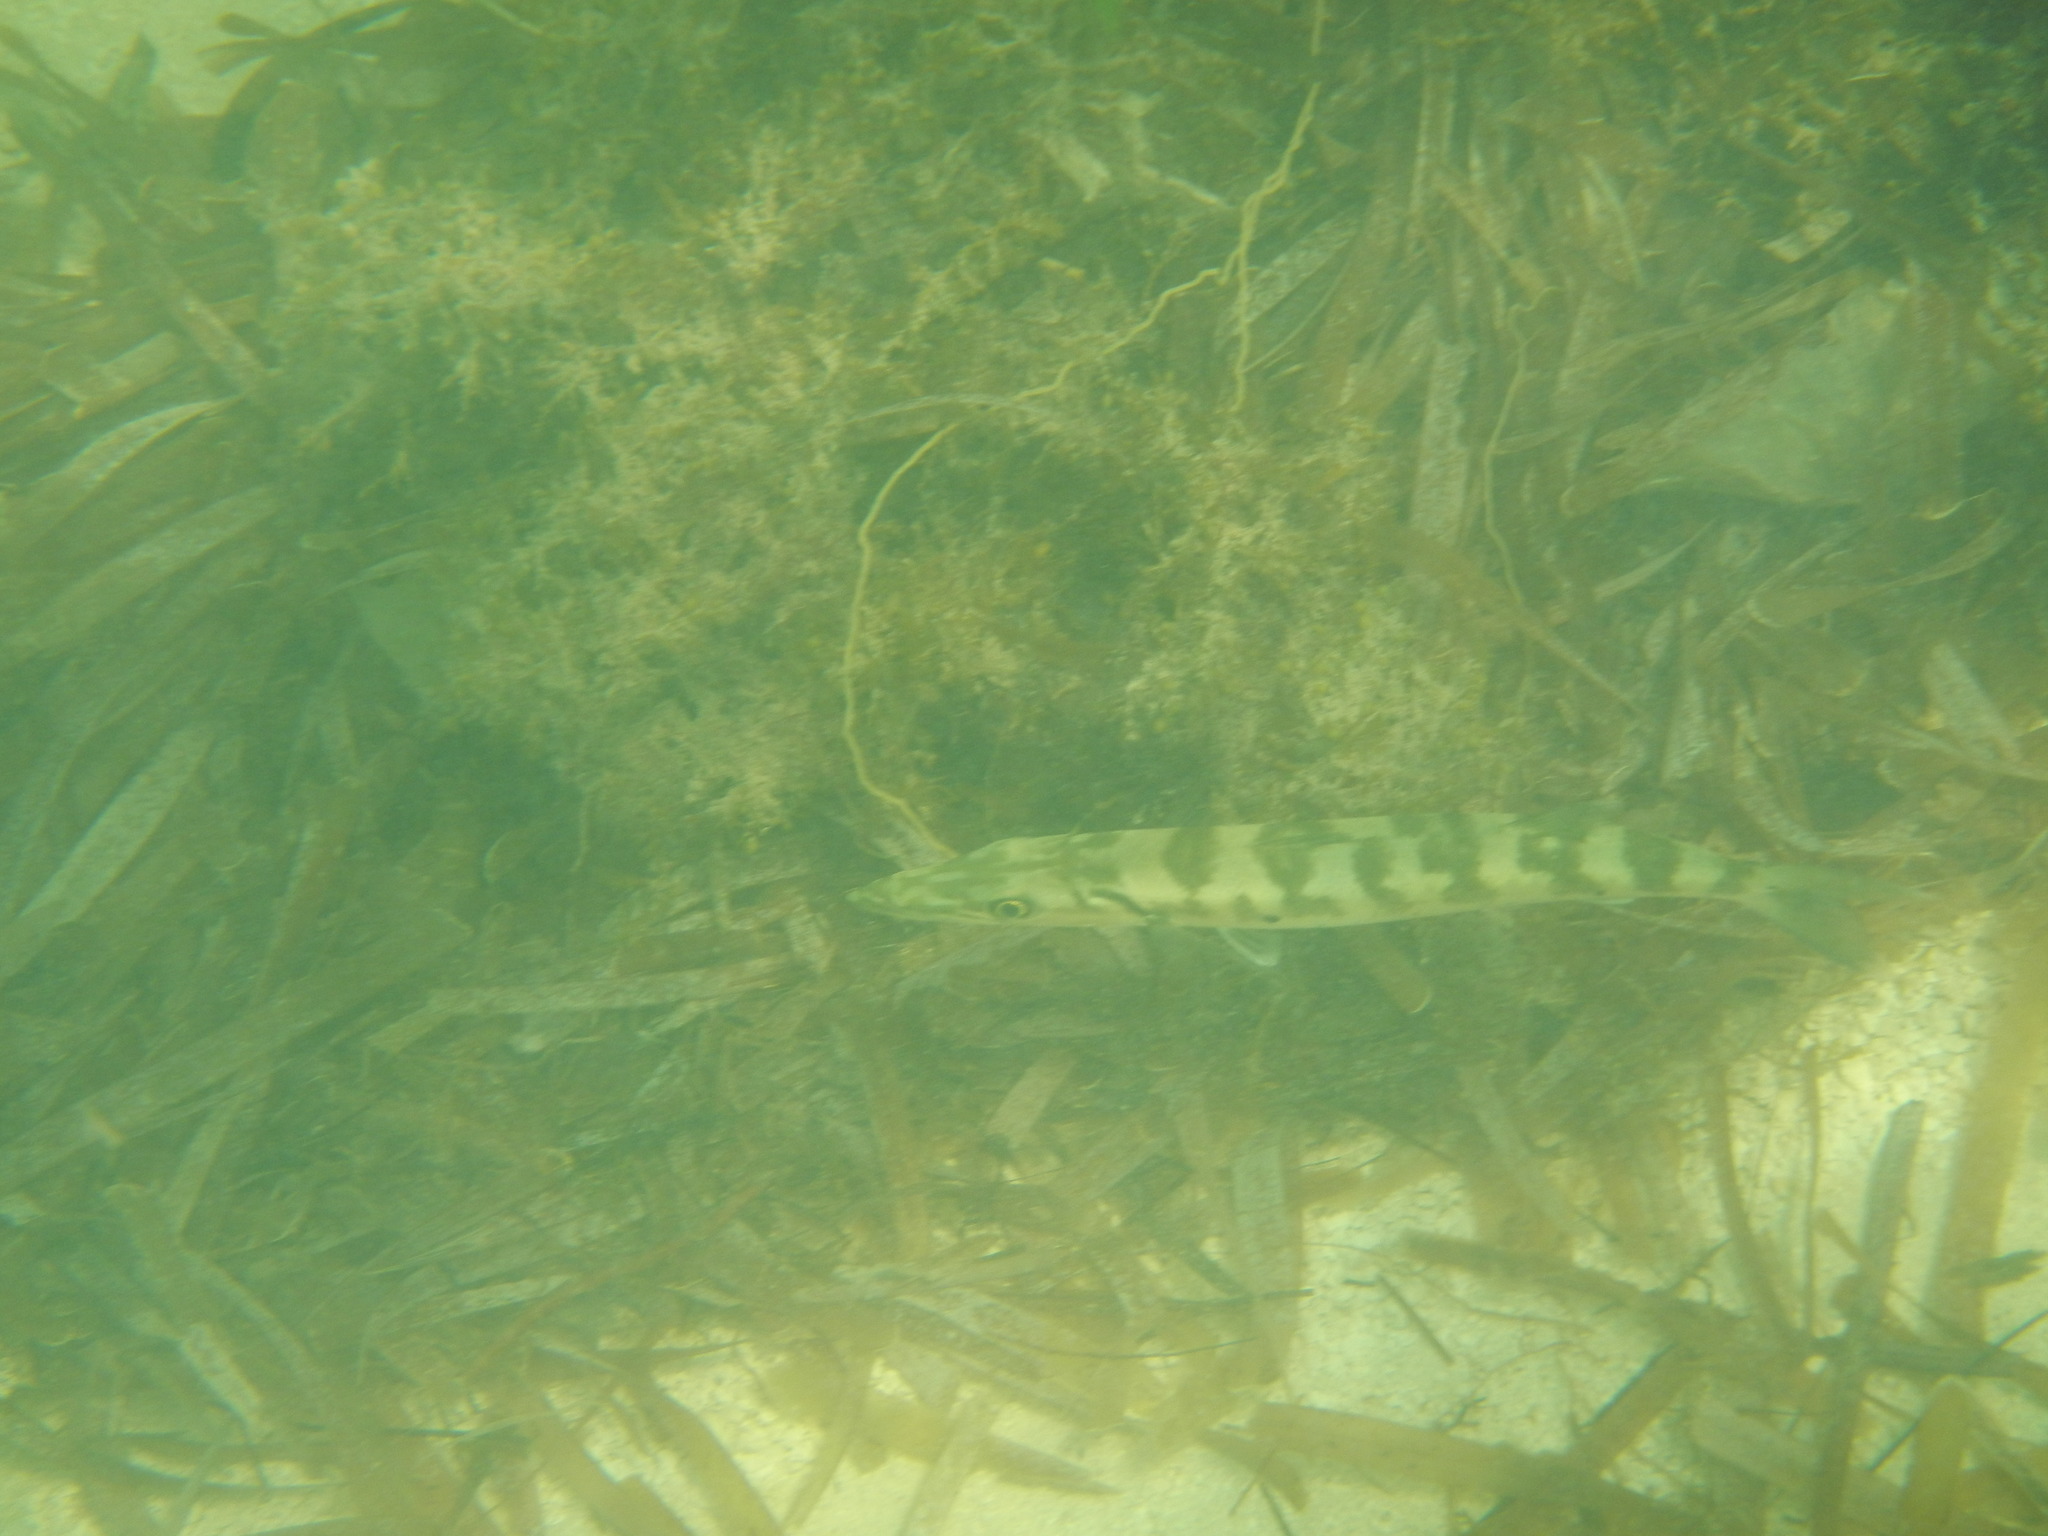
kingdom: Animalia
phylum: Chordata
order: Perciformes
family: Sphyraenidae
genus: Sphyraena
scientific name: Sphyraena barracuda
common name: Great barracuda
